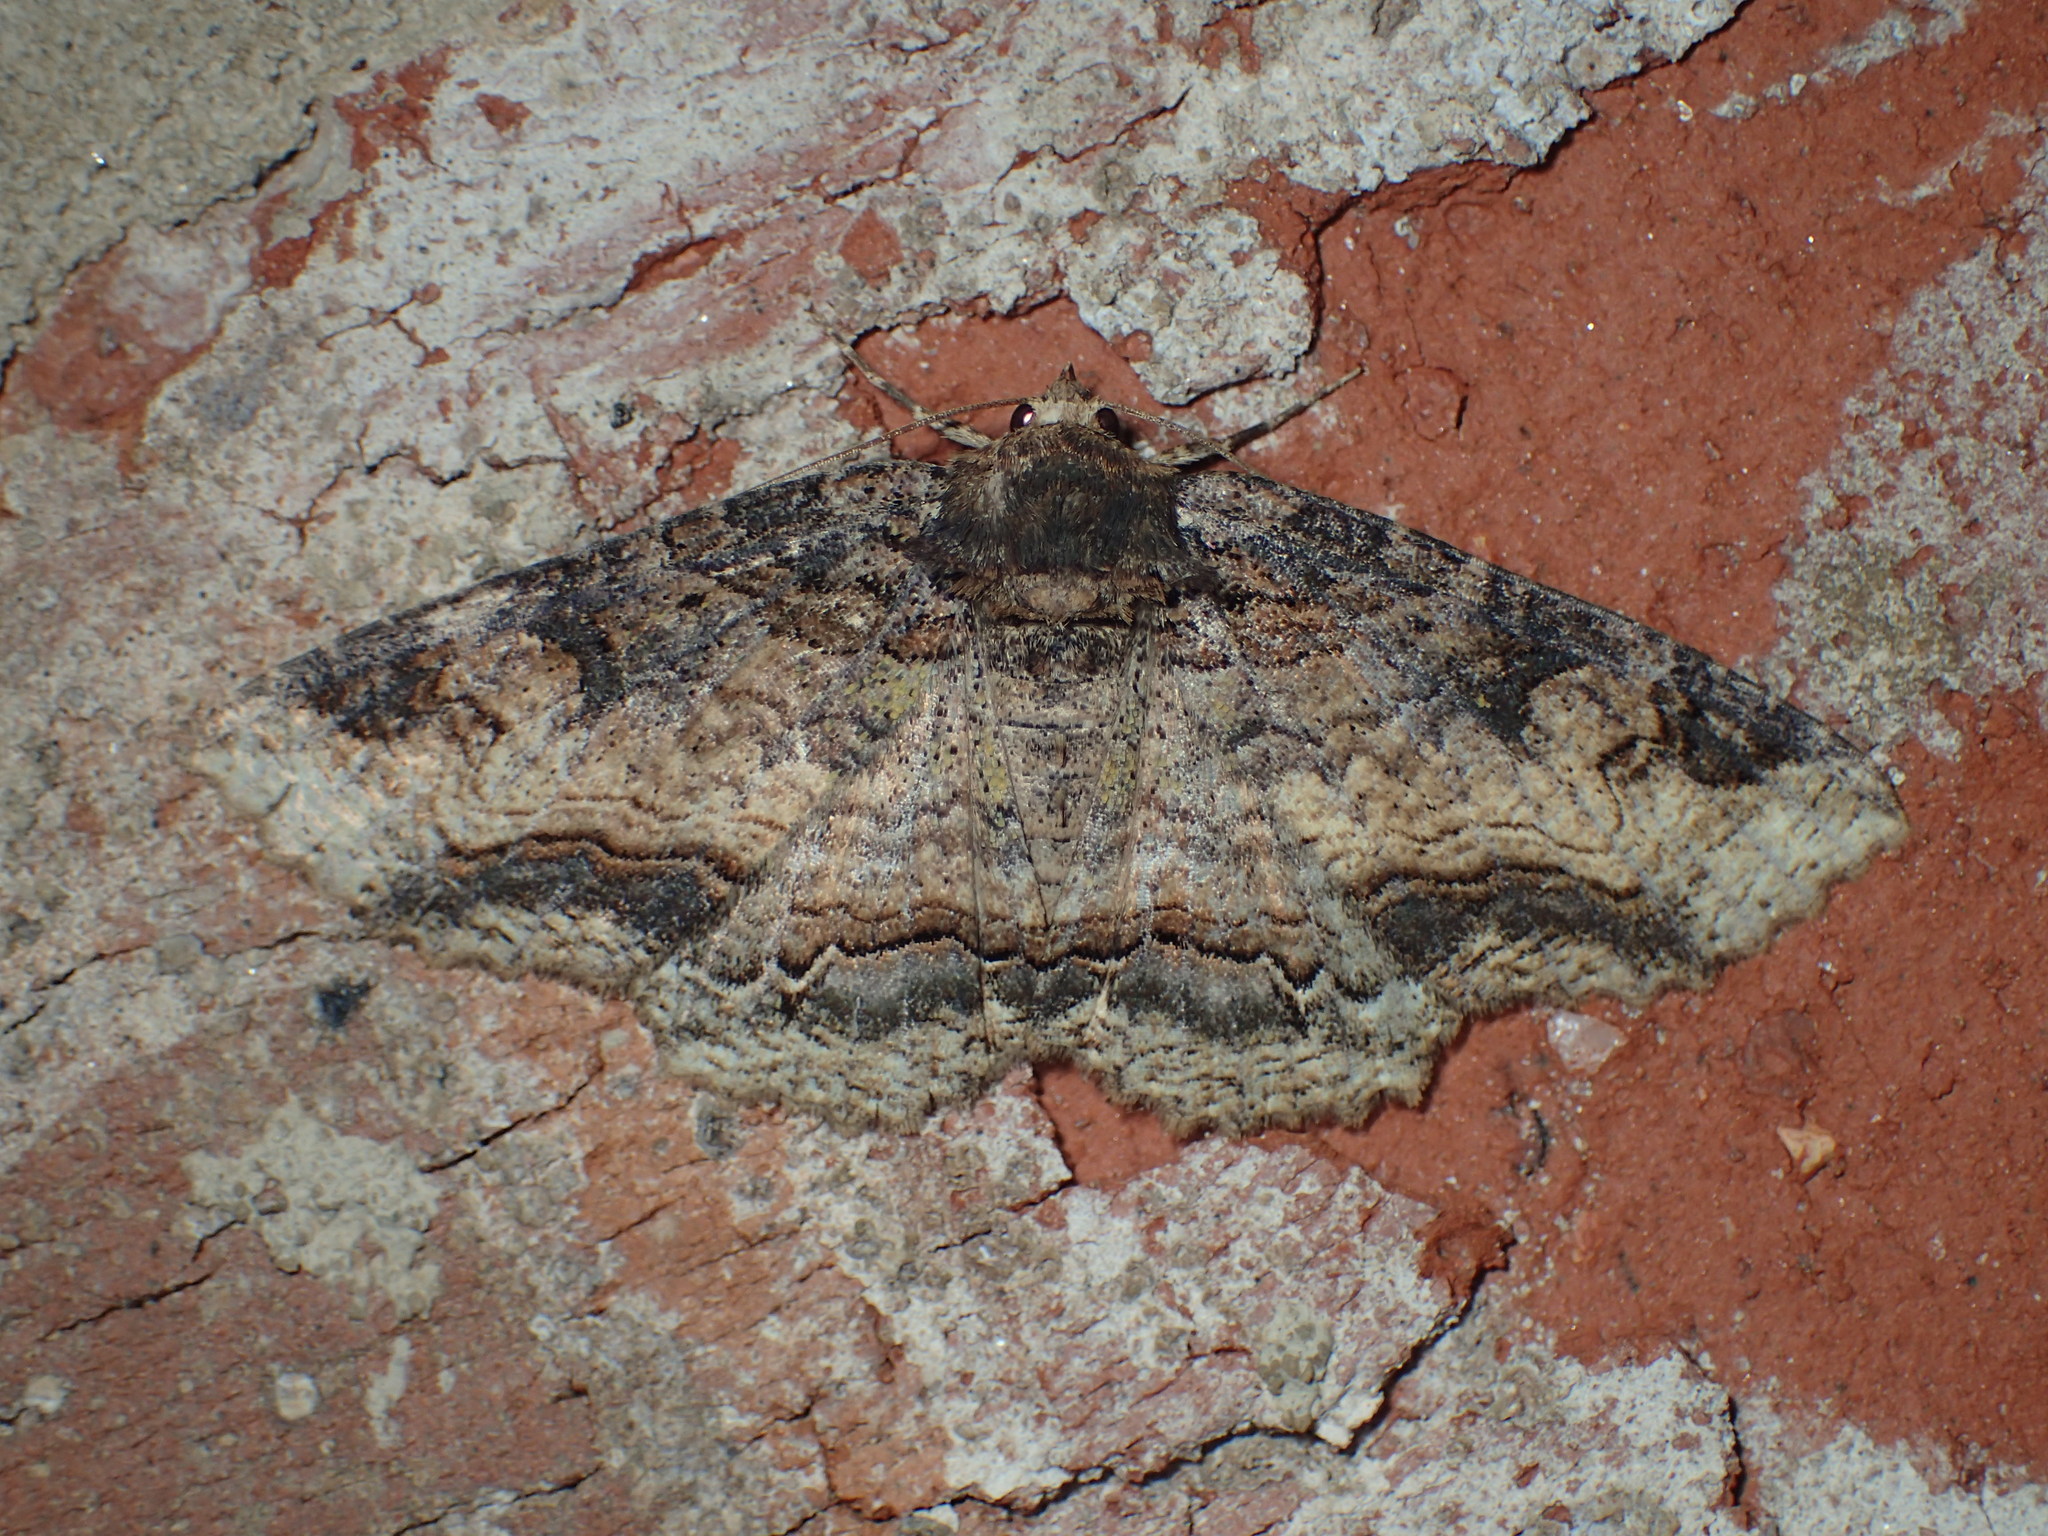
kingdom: Animalia
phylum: Arthropoda
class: Insecta
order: Lepidoptera
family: Erebidae
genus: Zale
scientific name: Zale minerea
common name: Colorful zale moth
